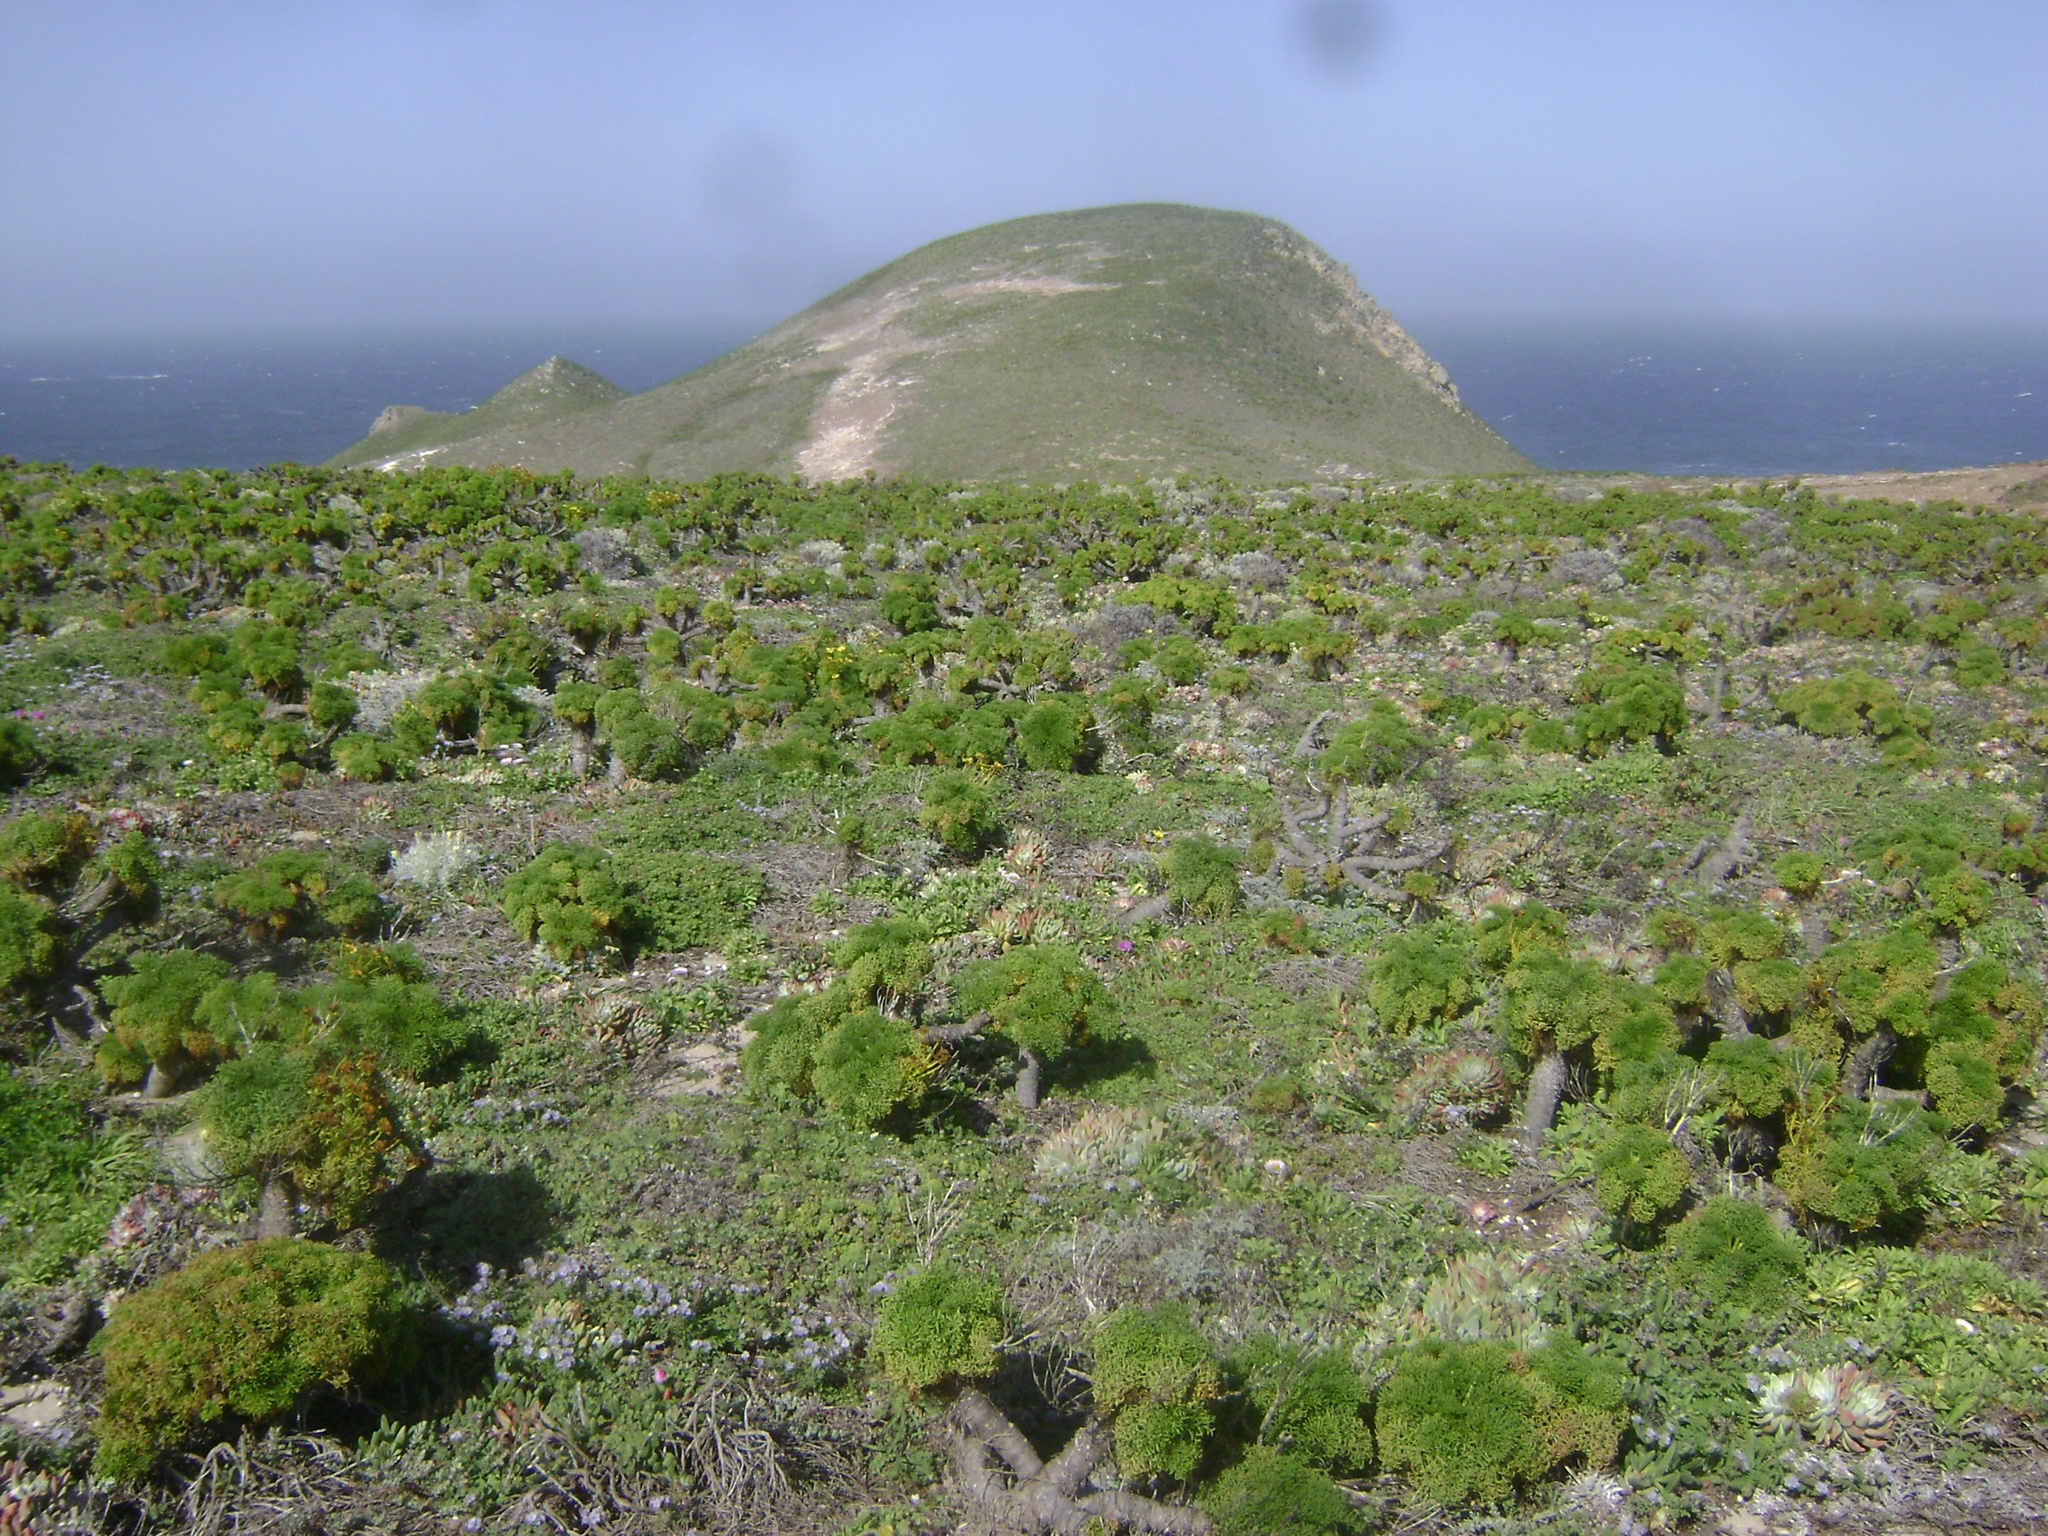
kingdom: Plantae
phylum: Tracheophyta
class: Magnoliopsida
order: Asterales
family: Asteraceae
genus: Coreopsis
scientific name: Coreopsis gigantea
